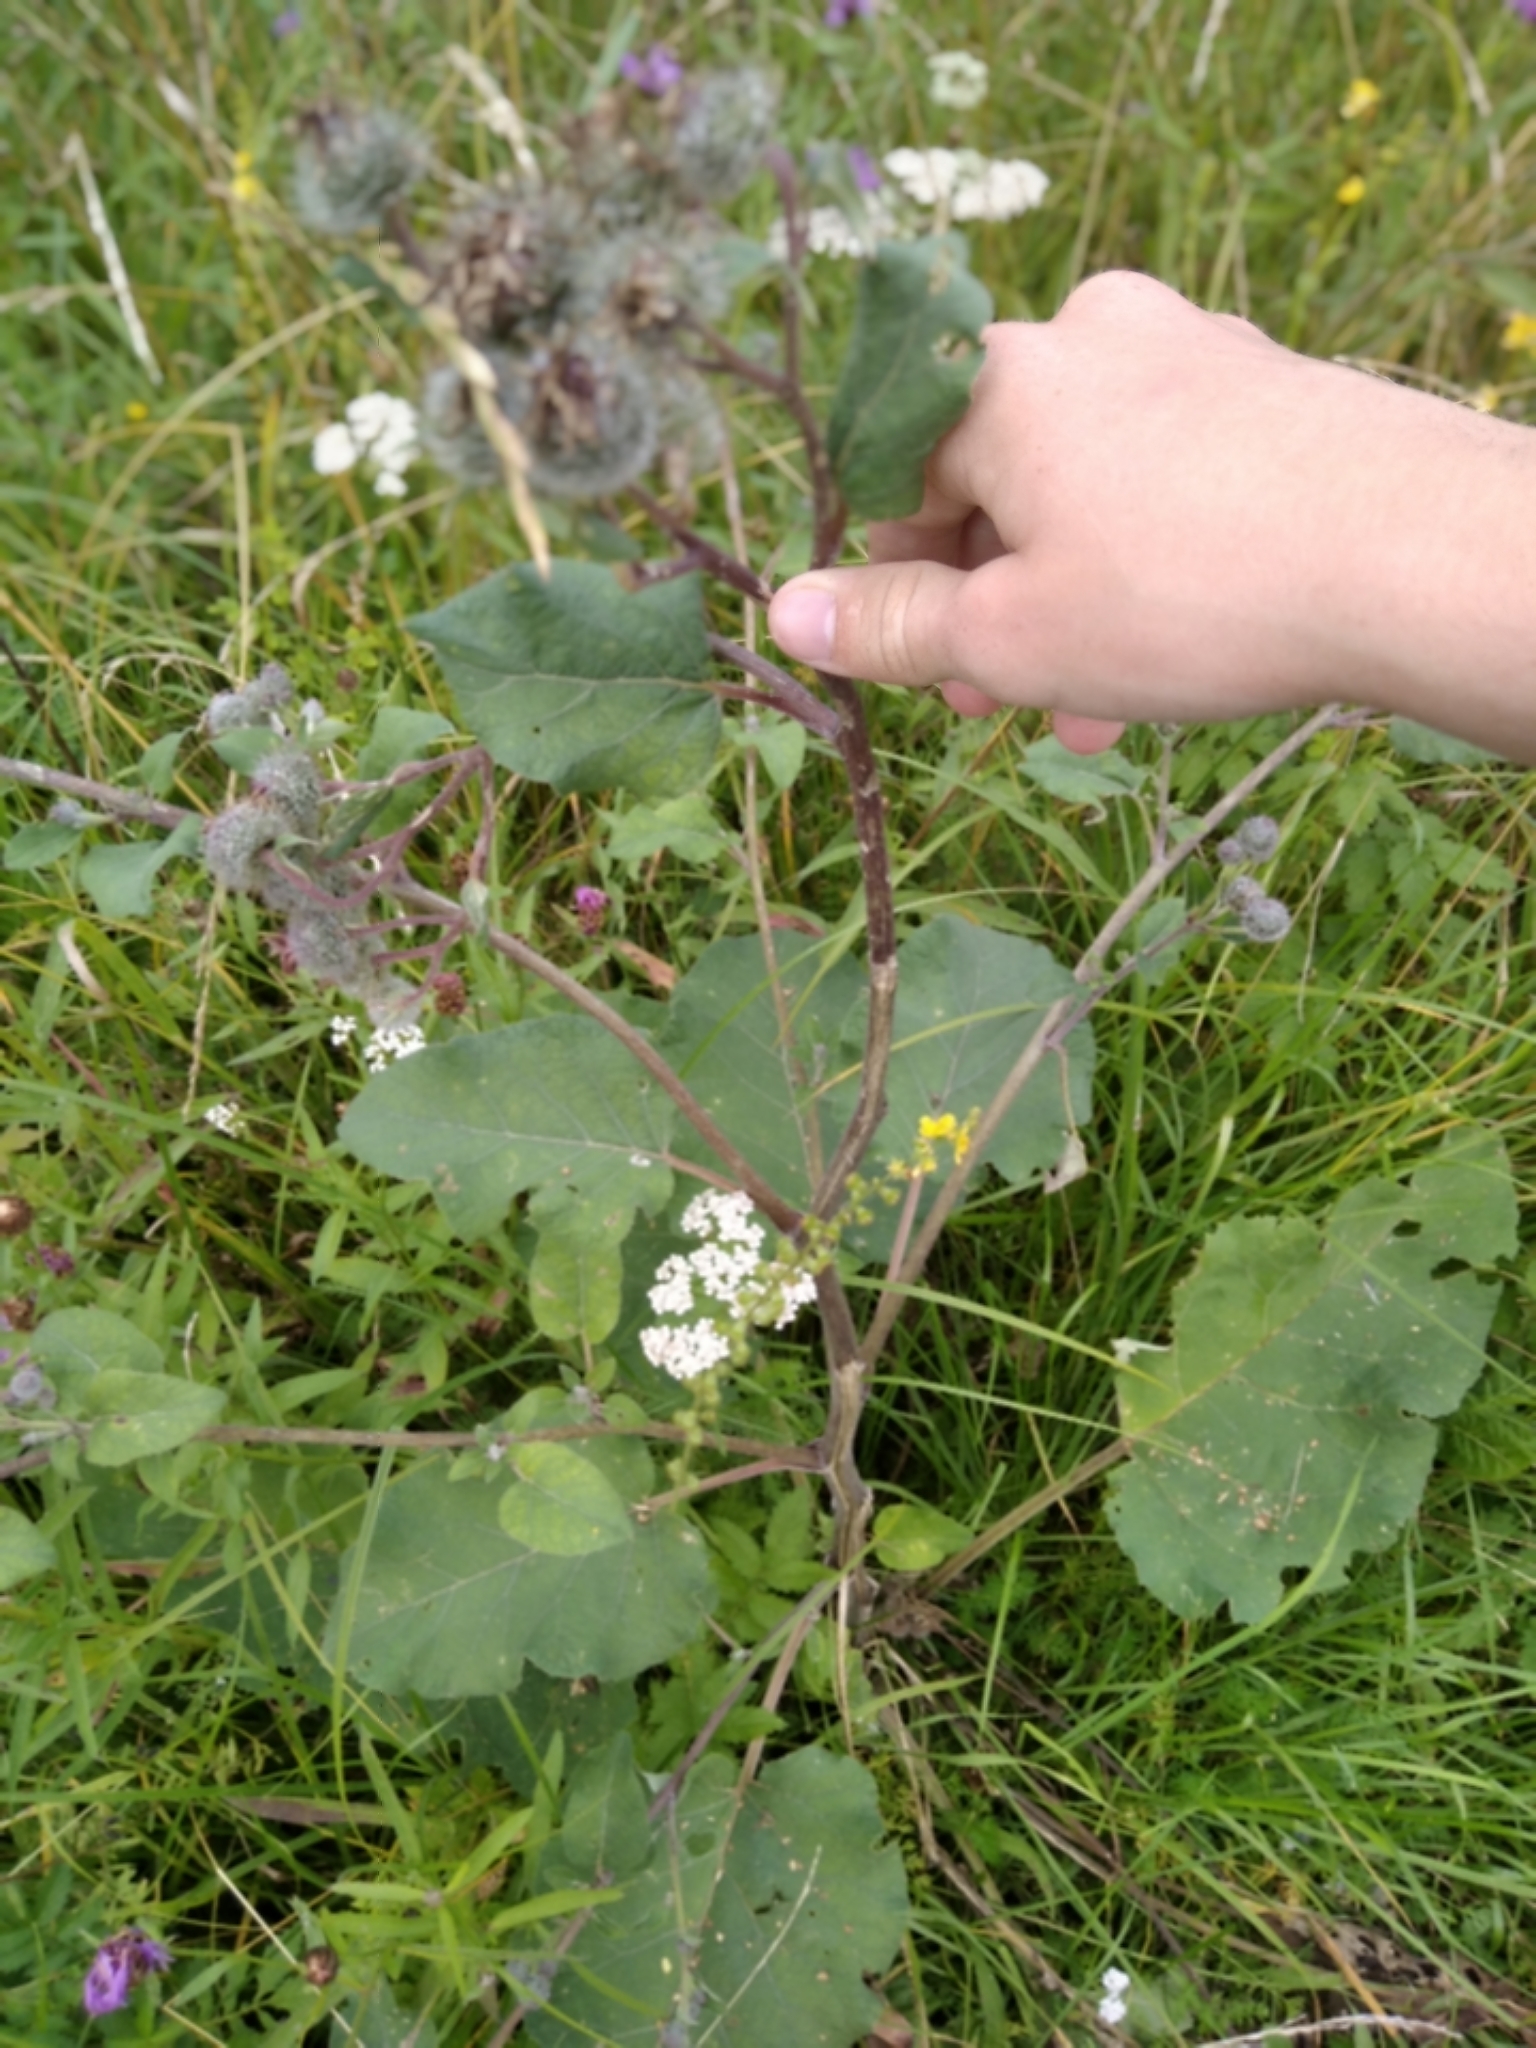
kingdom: Plantae
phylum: Tracheophyta
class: Magnoliopsida
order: Asterales
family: Asteraceae
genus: Arctium
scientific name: Arctium tomentosum
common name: Woolly burdock
